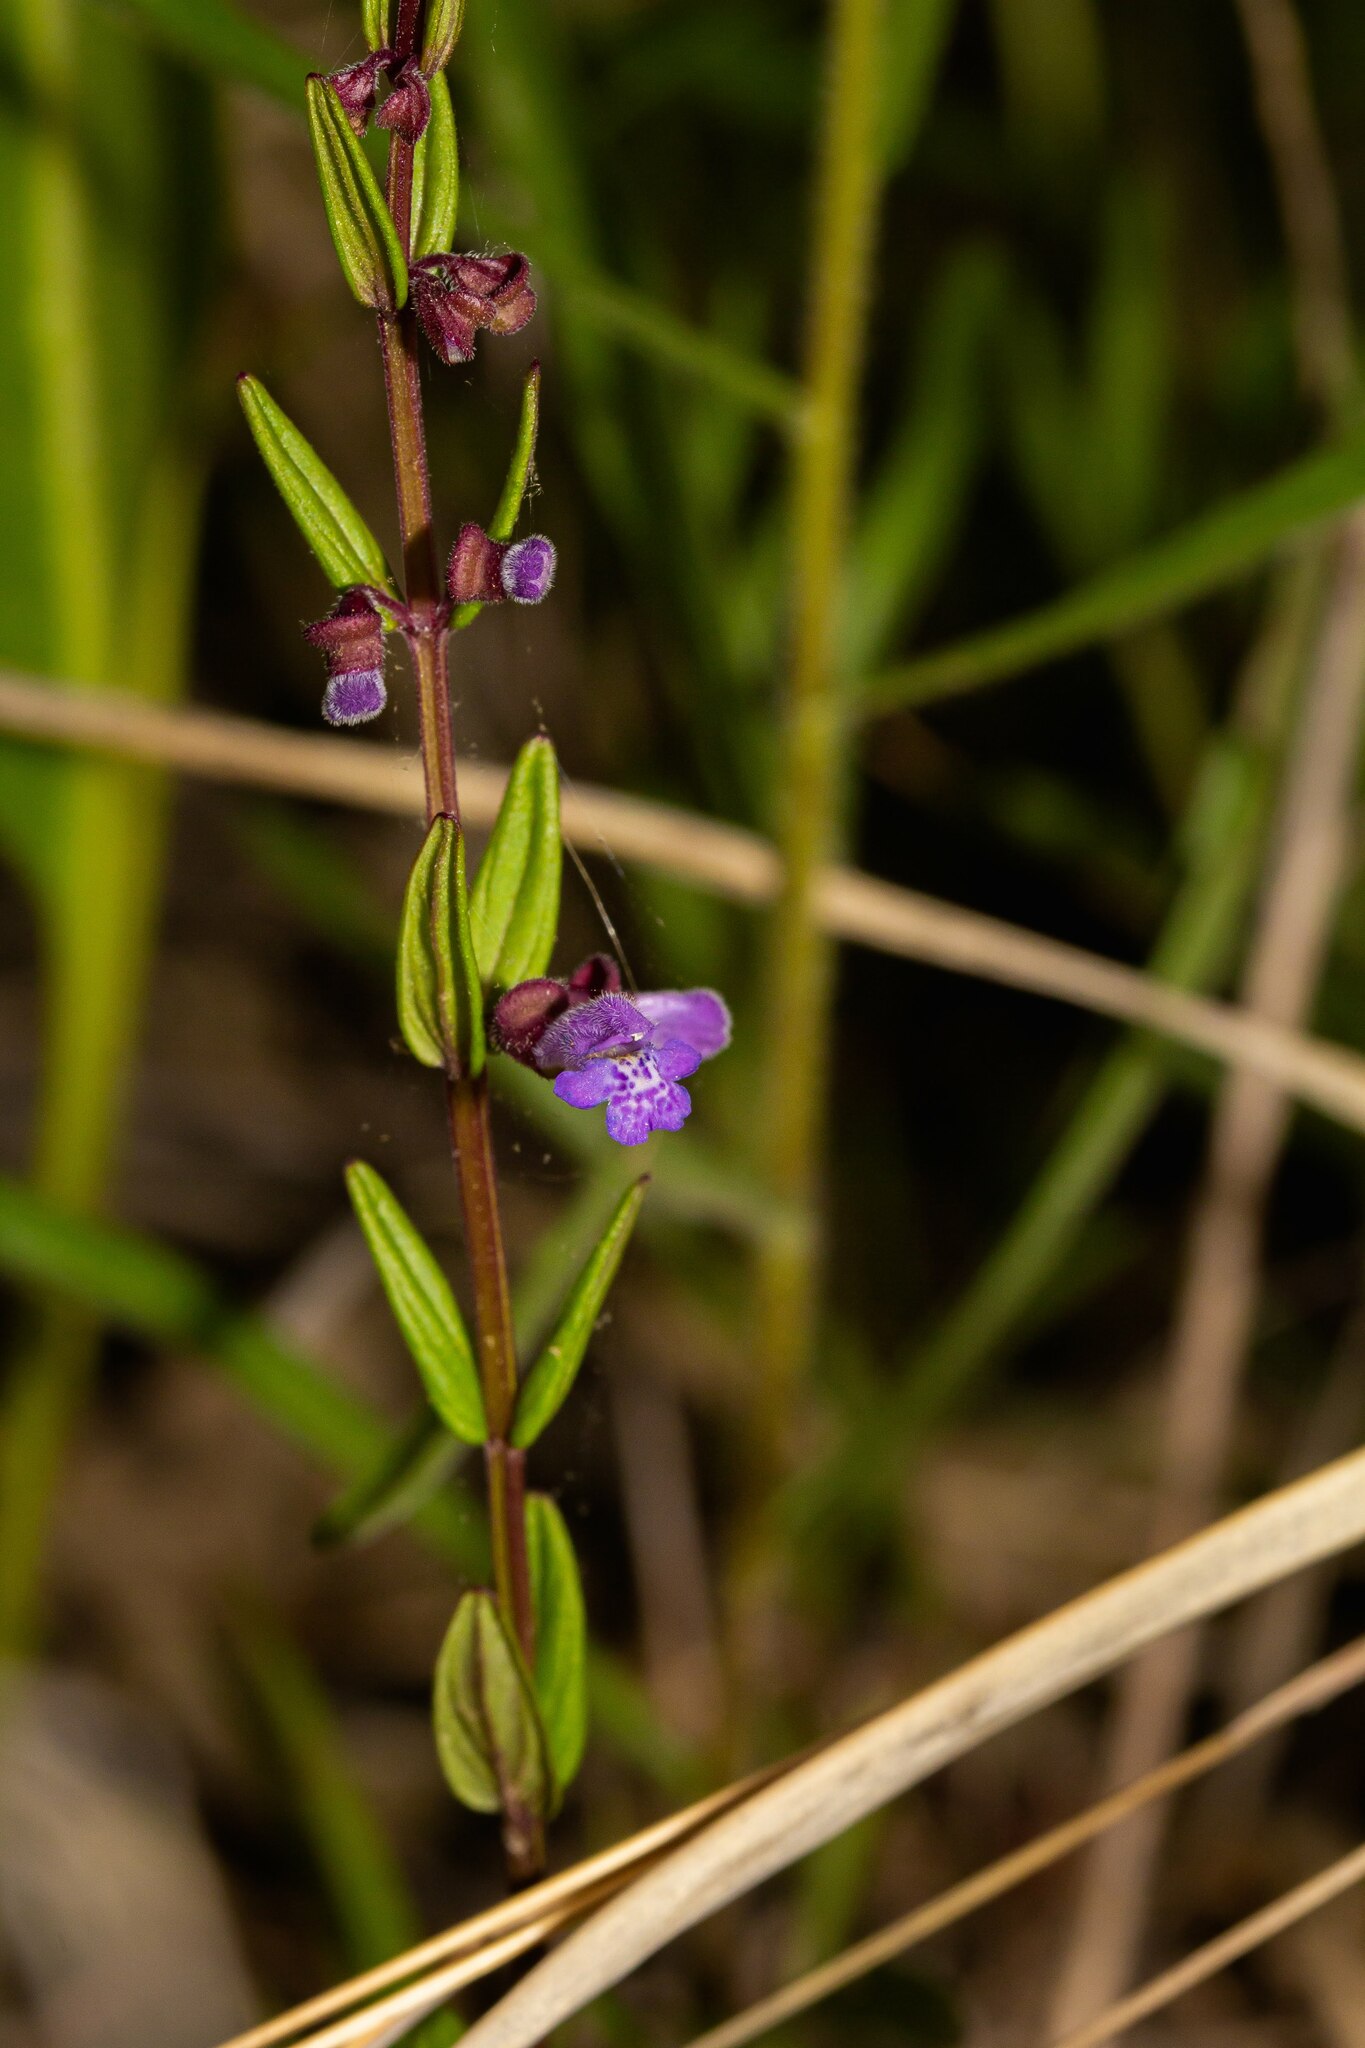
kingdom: Plantae
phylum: Tracheophyta
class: Magnoliopsida
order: Lamiales
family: Lamiaceae
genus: Scutellaria
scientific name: Scutellaria parvula
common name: Little scullcap
